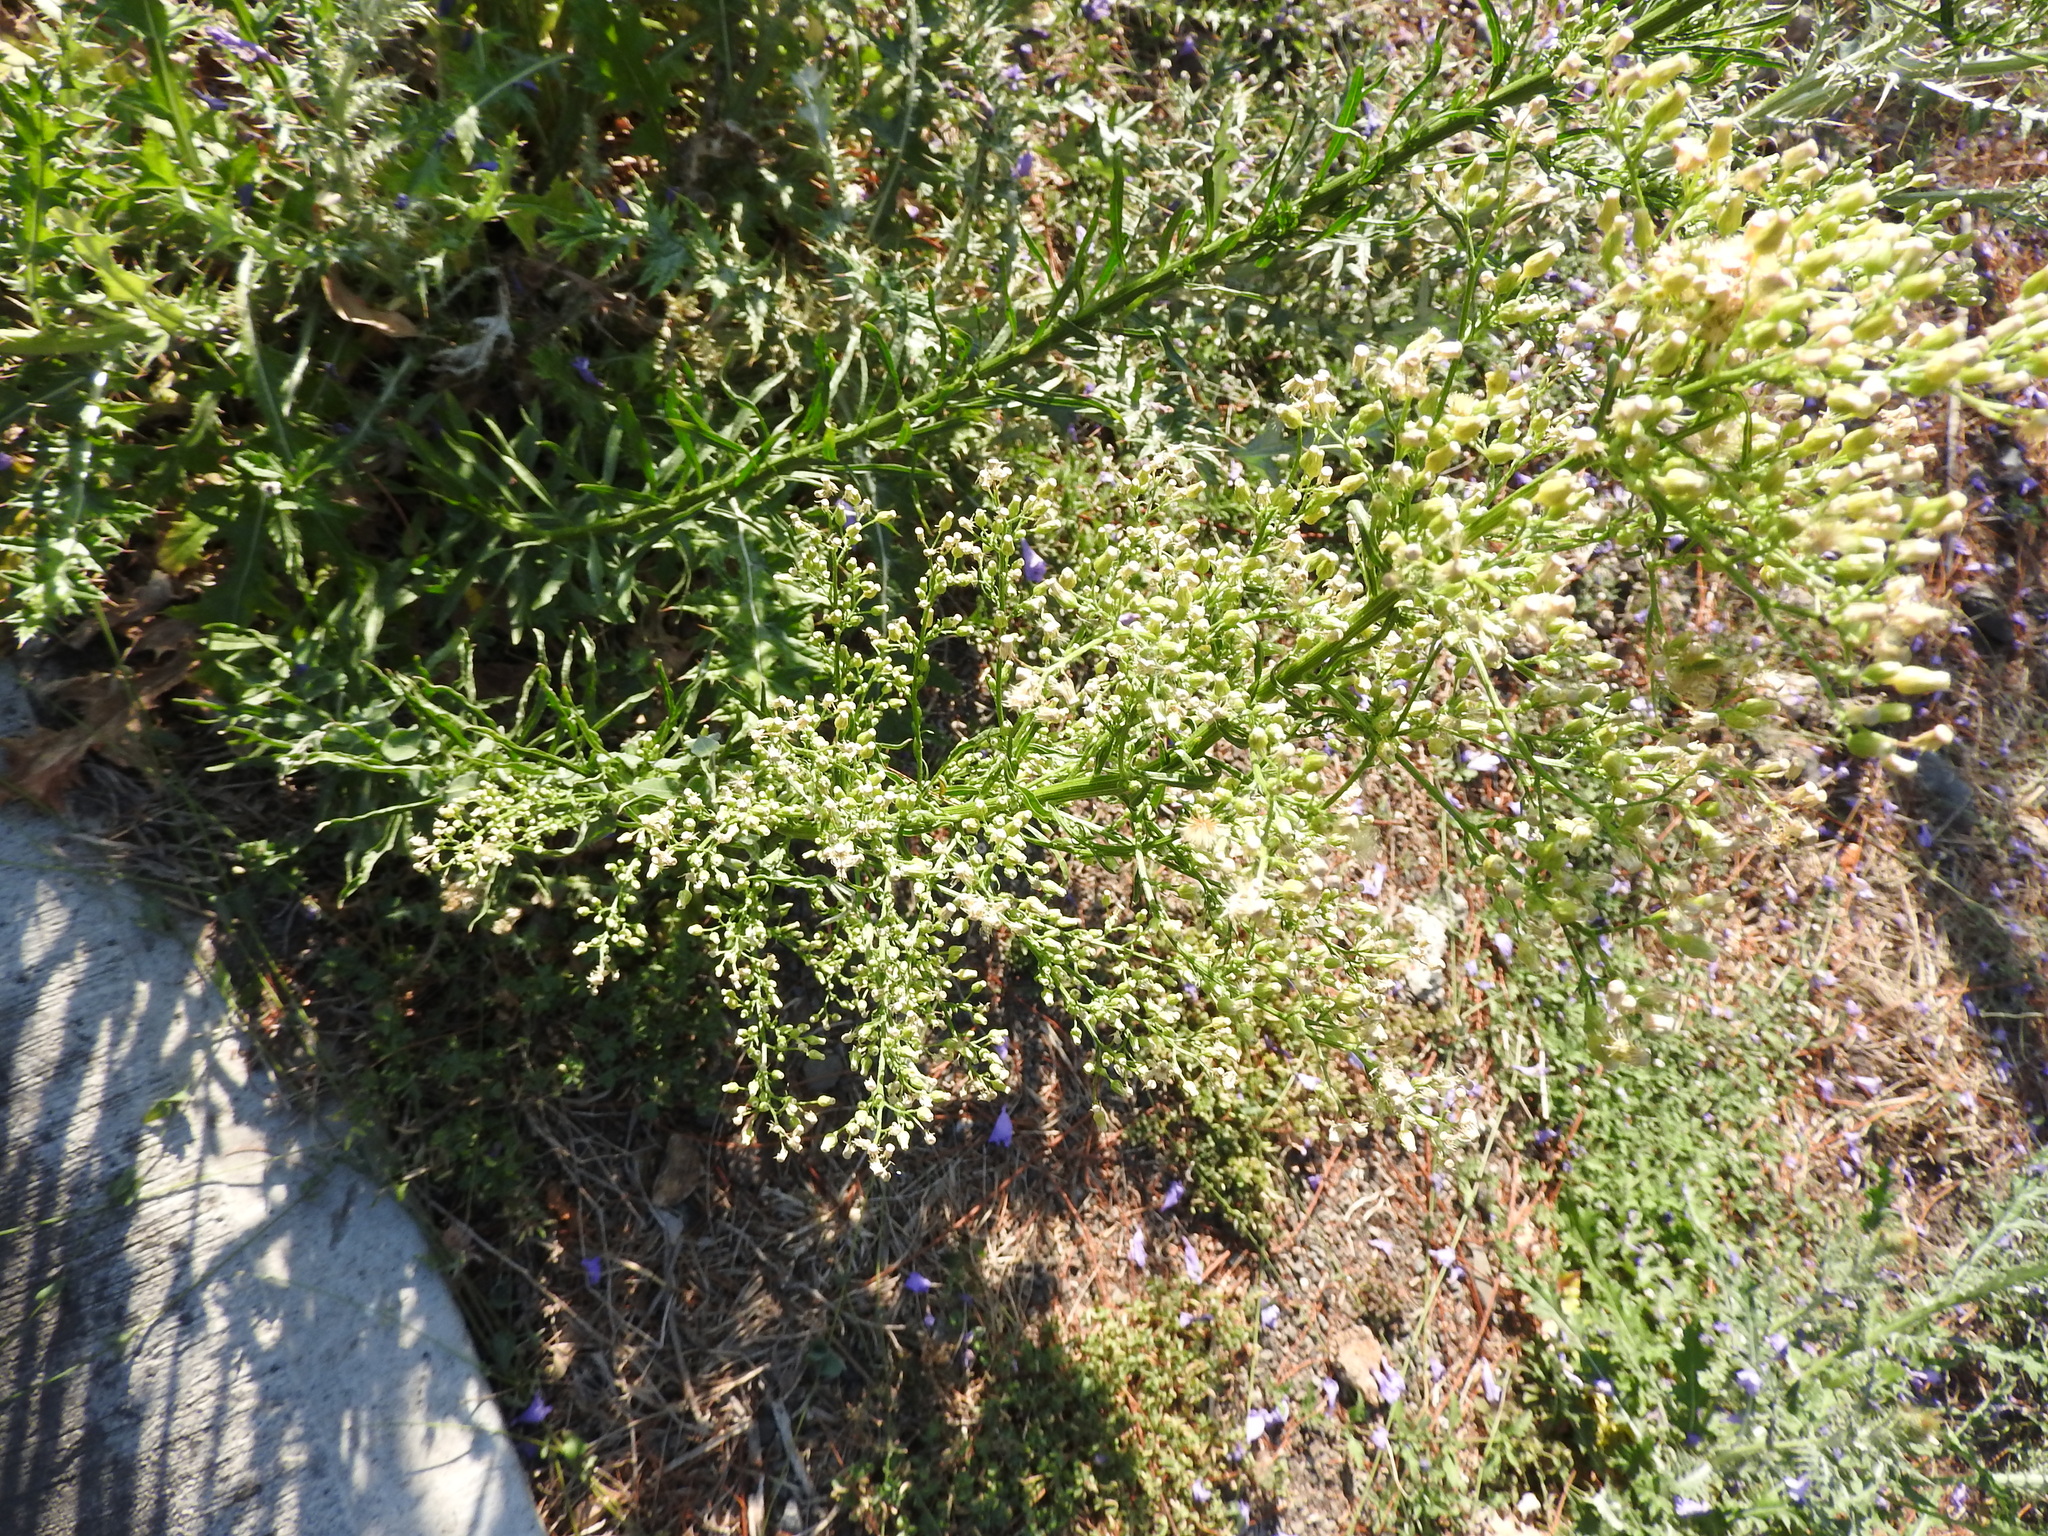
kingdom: Plantae
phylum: Tracheophyta
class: Magnoliopsida
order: Asterales
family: Asteraceae
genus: Erigeron
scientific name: Erigeron canadensis
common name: Canadian fleabane
